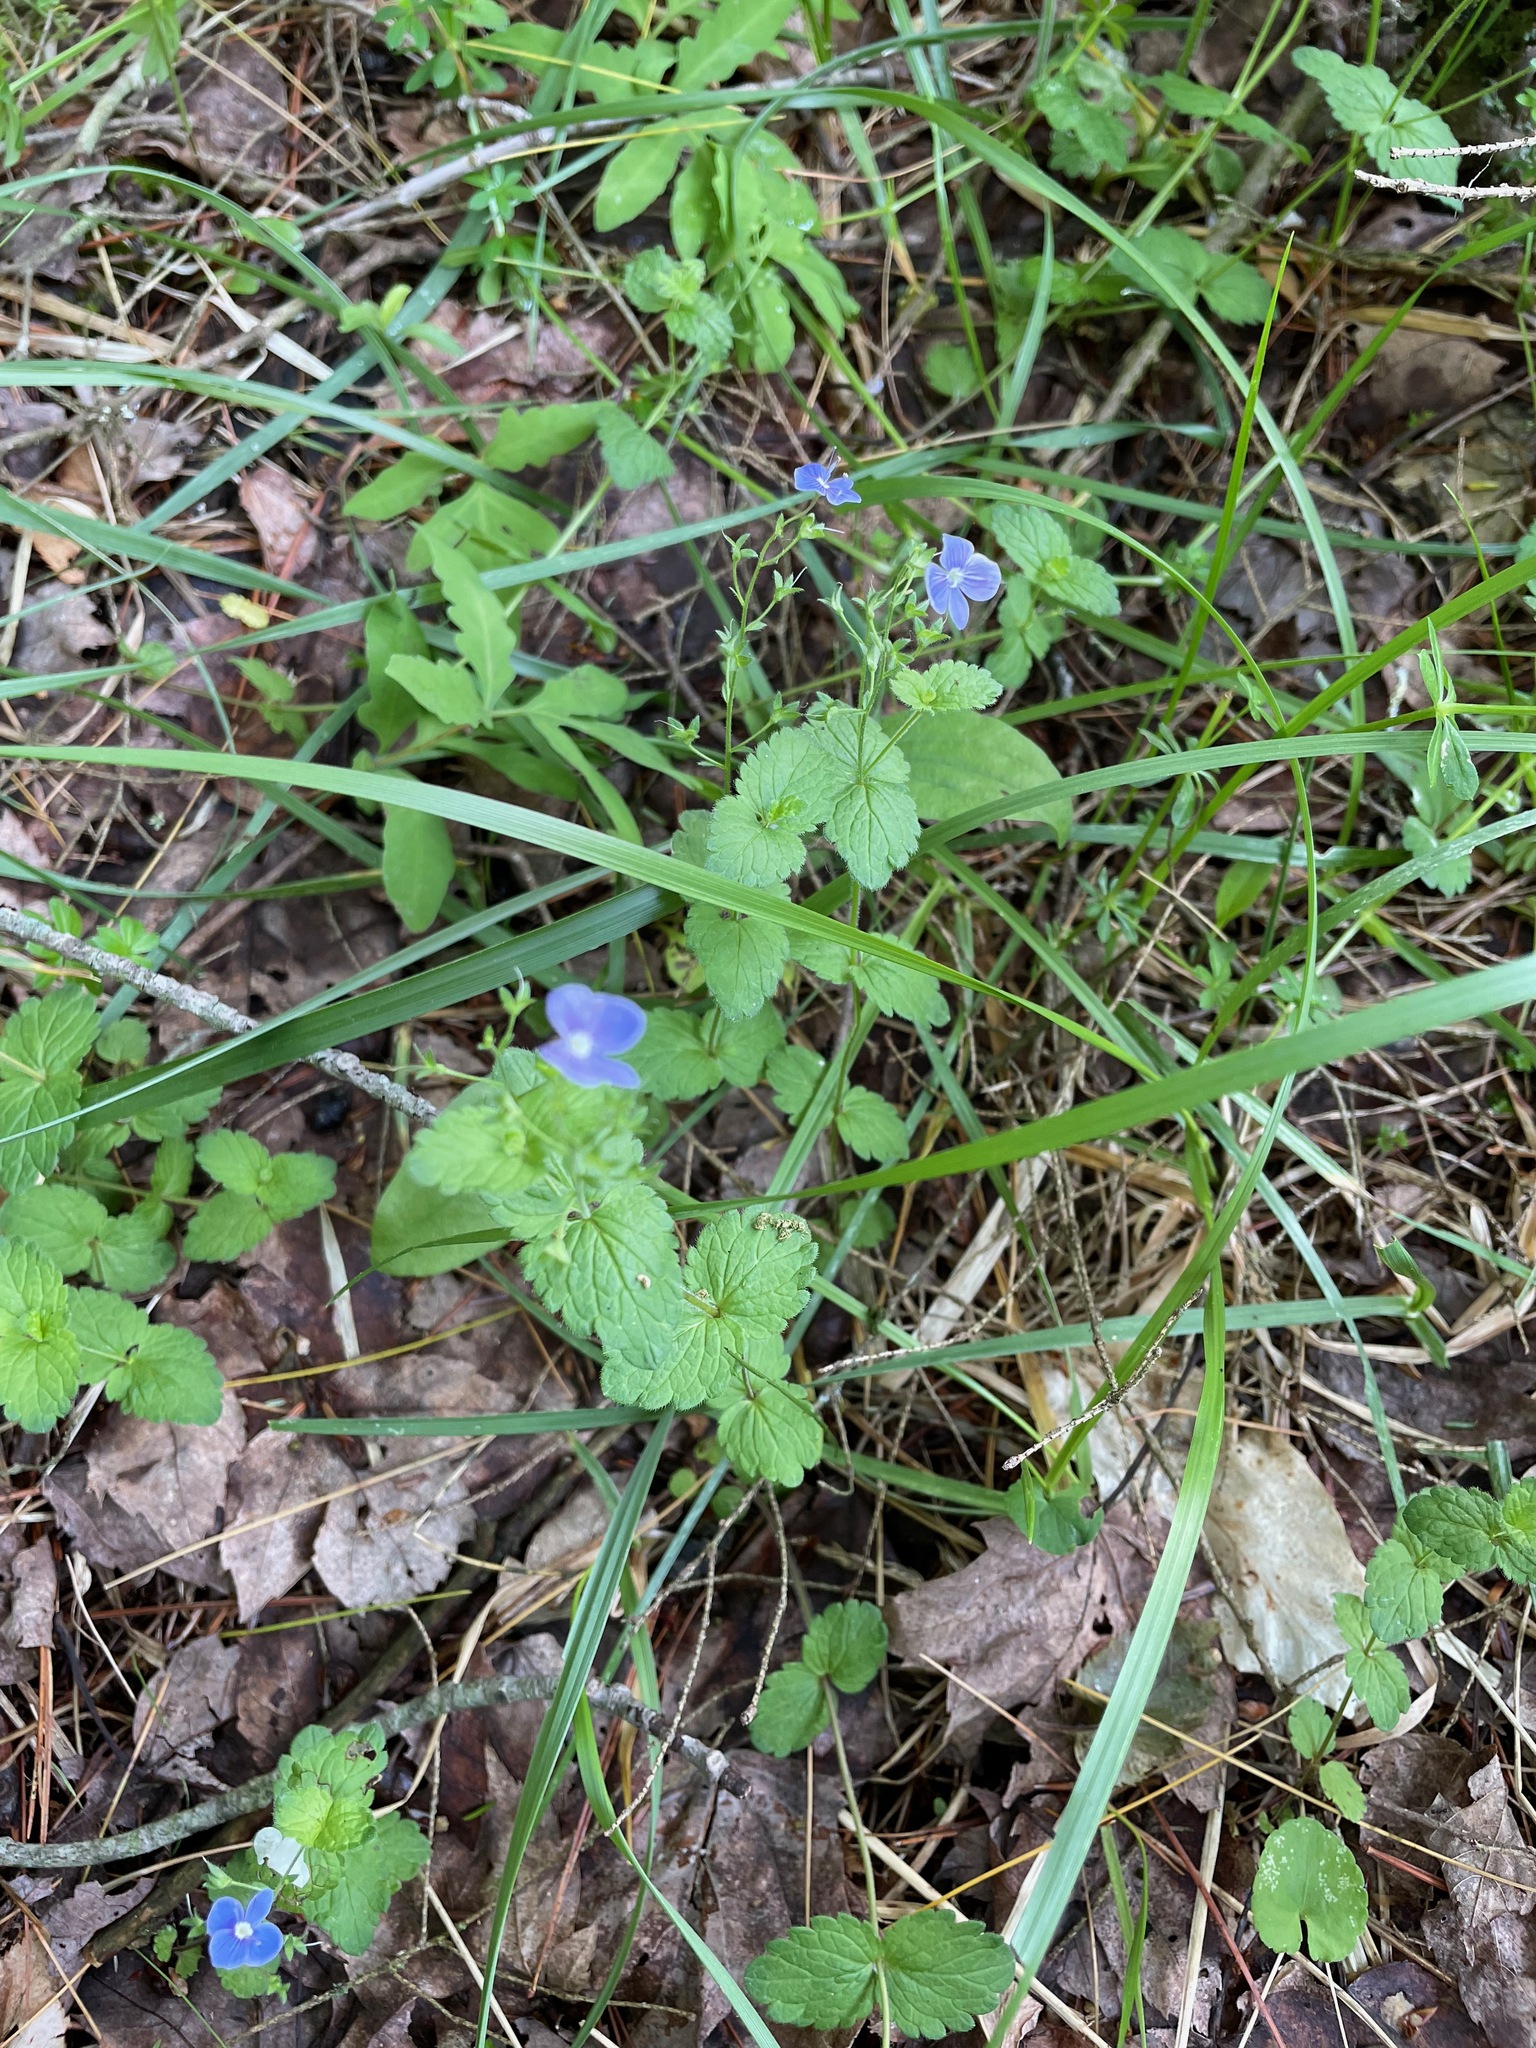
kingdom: Plantae
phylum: Tracheophyta
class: Magnoliopsida
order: Lamiales
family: Plantaginaceae
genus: Veronica
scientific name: Veronica chamaedrys
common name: Germander speedwell
